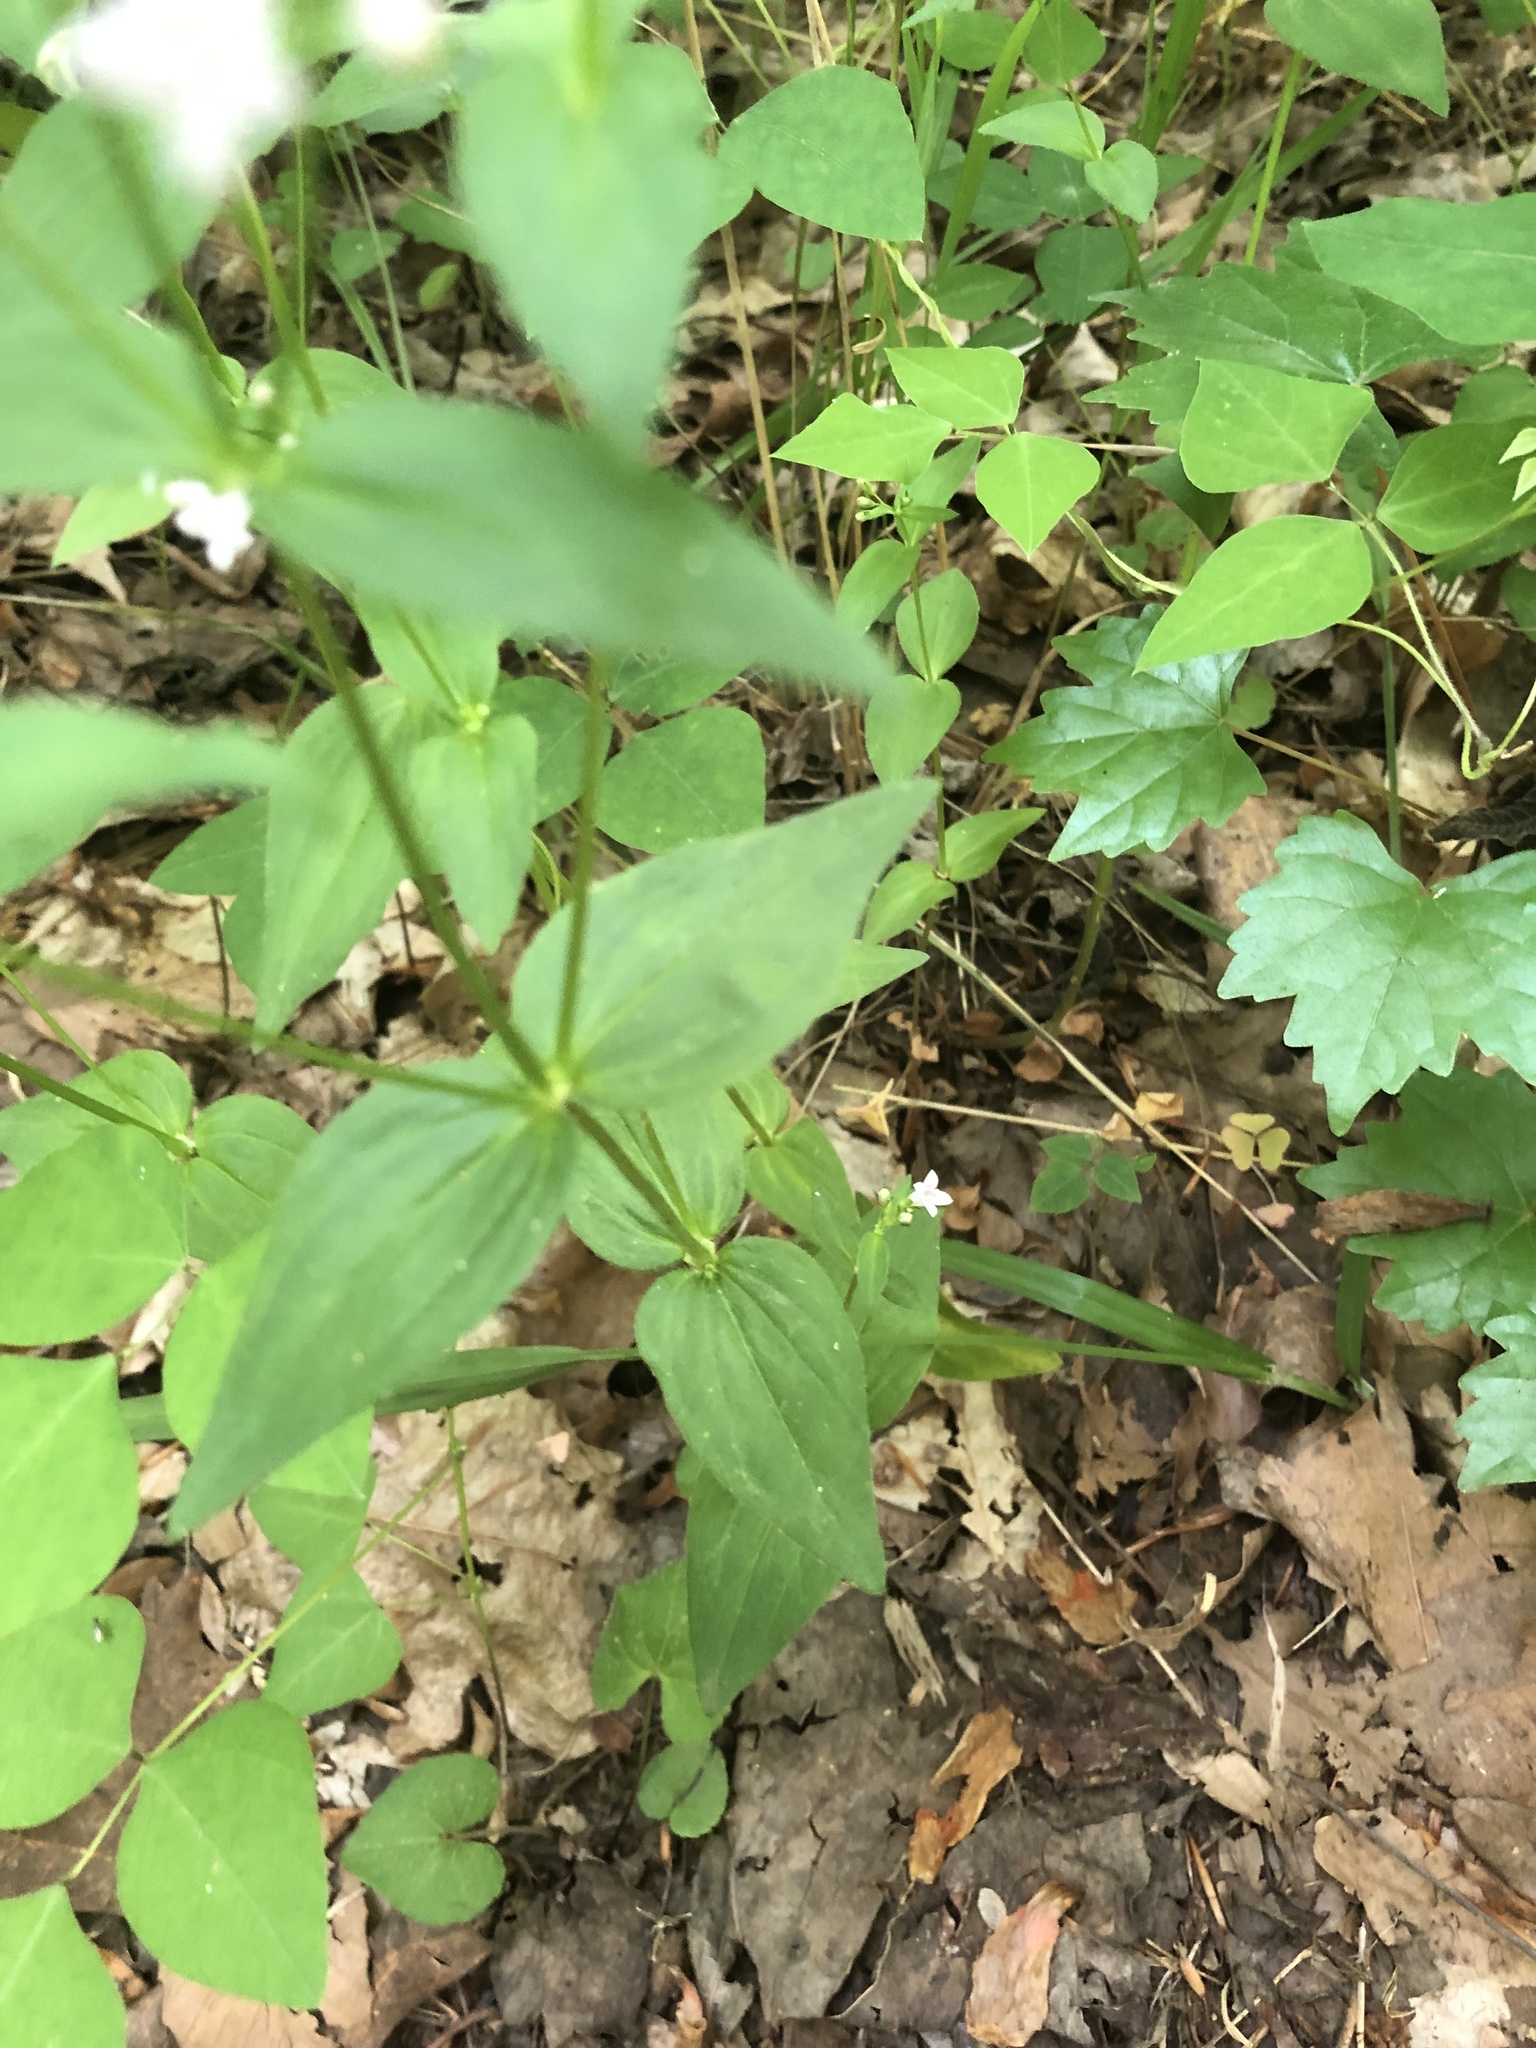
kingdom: Plantae
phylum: Tracheophyta
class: Magnoliopsida
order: Gentianales
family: Rubiaceae
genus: Houstonia
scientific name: Houstonia purpurea
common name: Summer bluet
